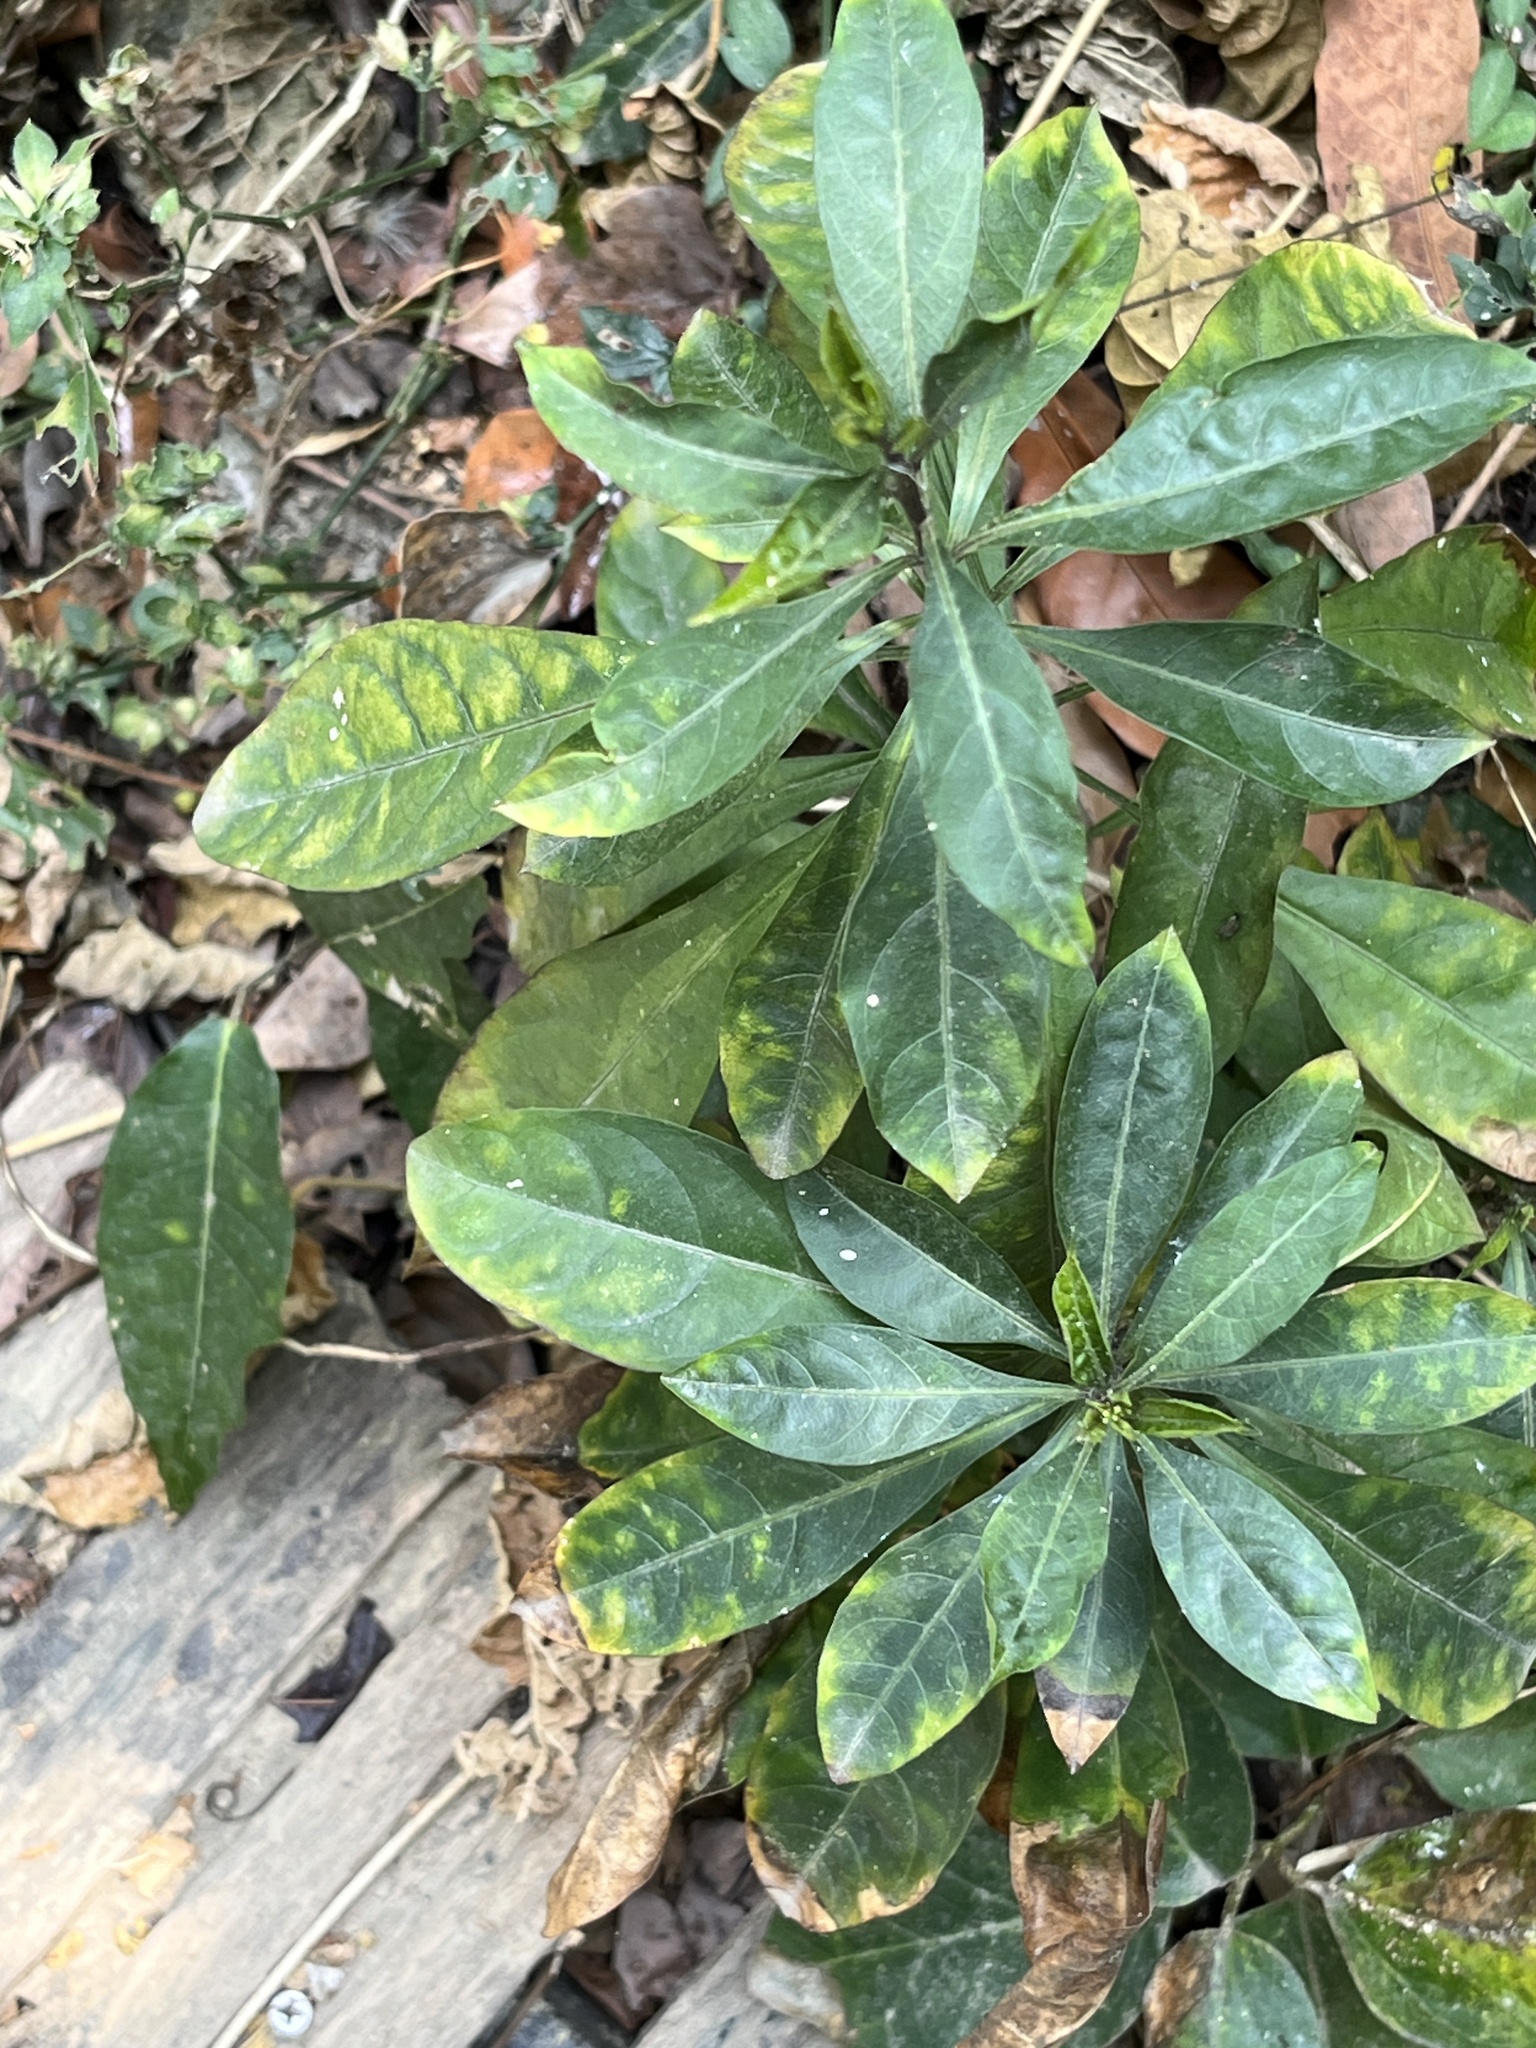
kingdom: Plantae
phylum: Tracheophyta
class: Magnoliopsida
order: Solanales
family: Solanaceae
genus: Solanum
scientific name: Solanum diphyllum
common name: Twoleaf nightshade
